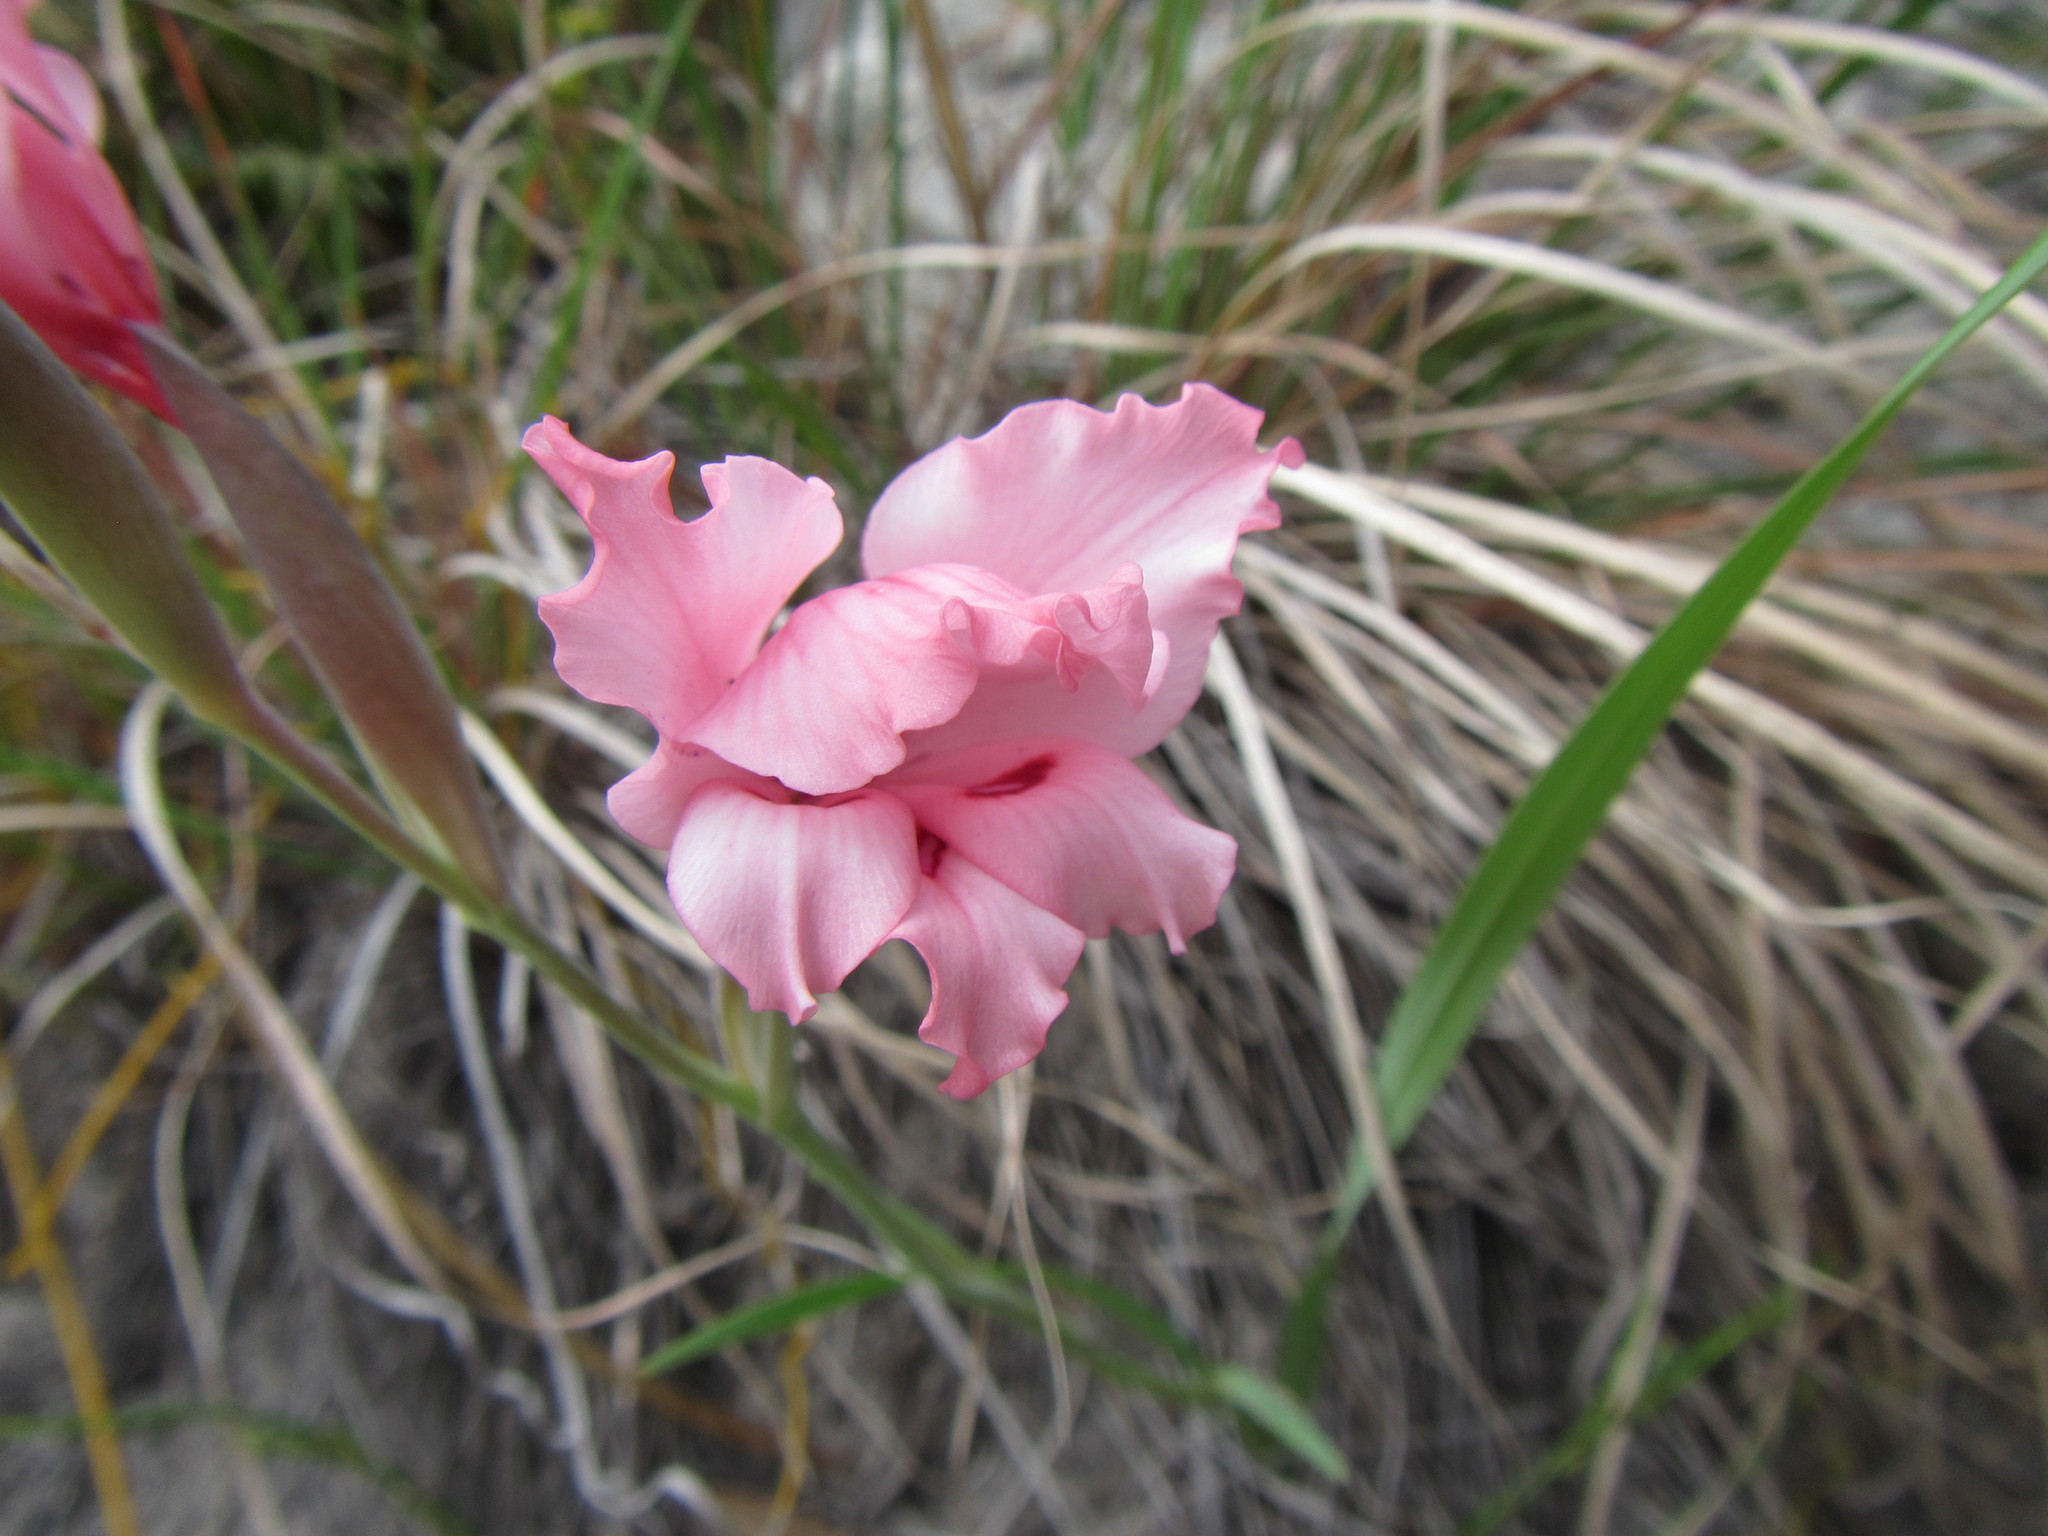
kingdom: Plantae
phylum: Tracheophyta
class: Liliopsida
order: Asparagales
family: Iridaceae
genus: Gladiolus
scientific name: Gladiolus carneus
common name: Painted-lady
